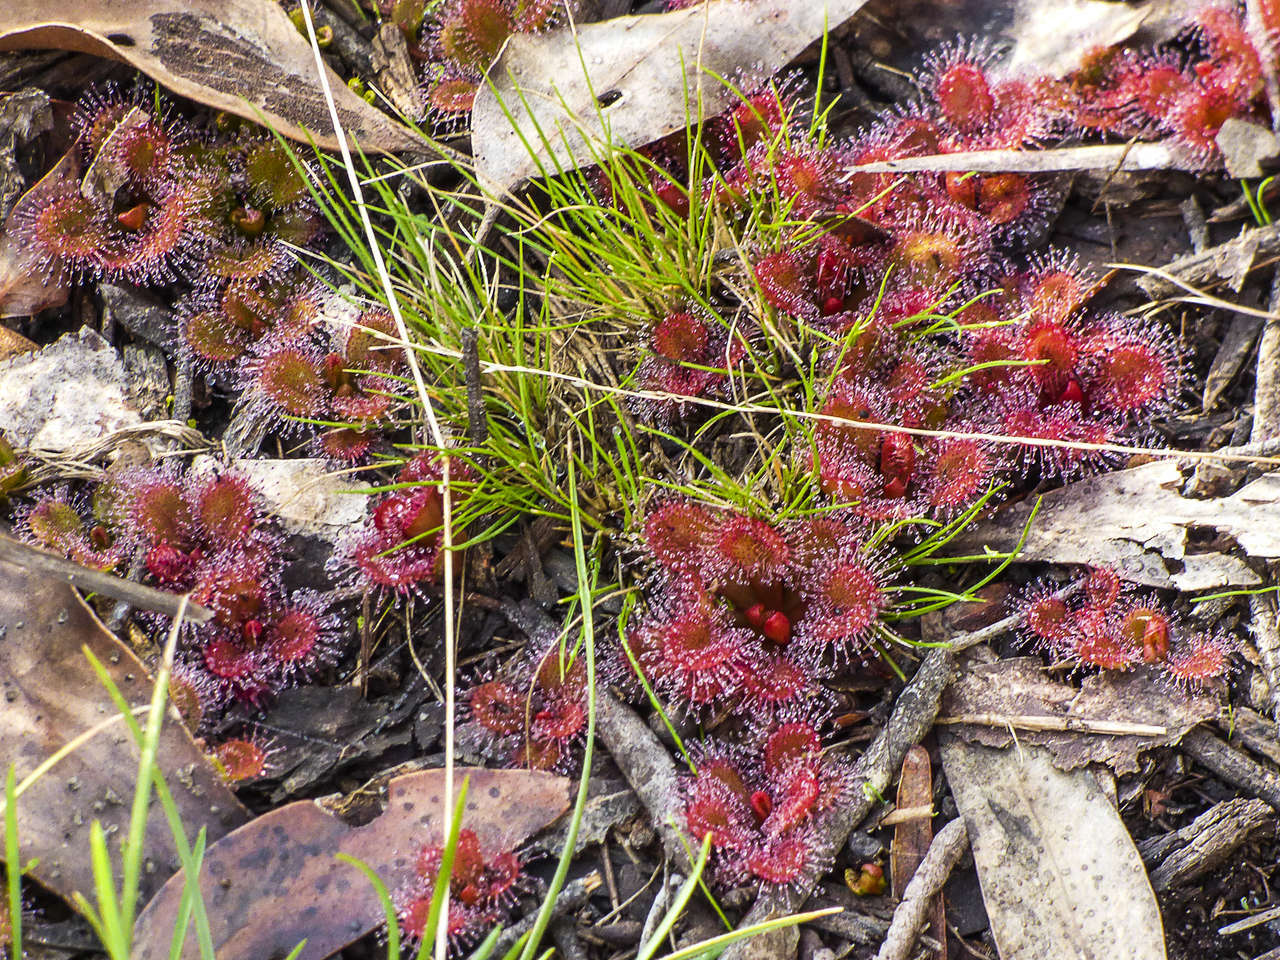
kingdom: Plantae
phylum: Tracheophyta
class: Magnoliopsida
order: Caryophyllales
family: Droseraceae
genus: Drosera
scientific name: Drosera aberrans
